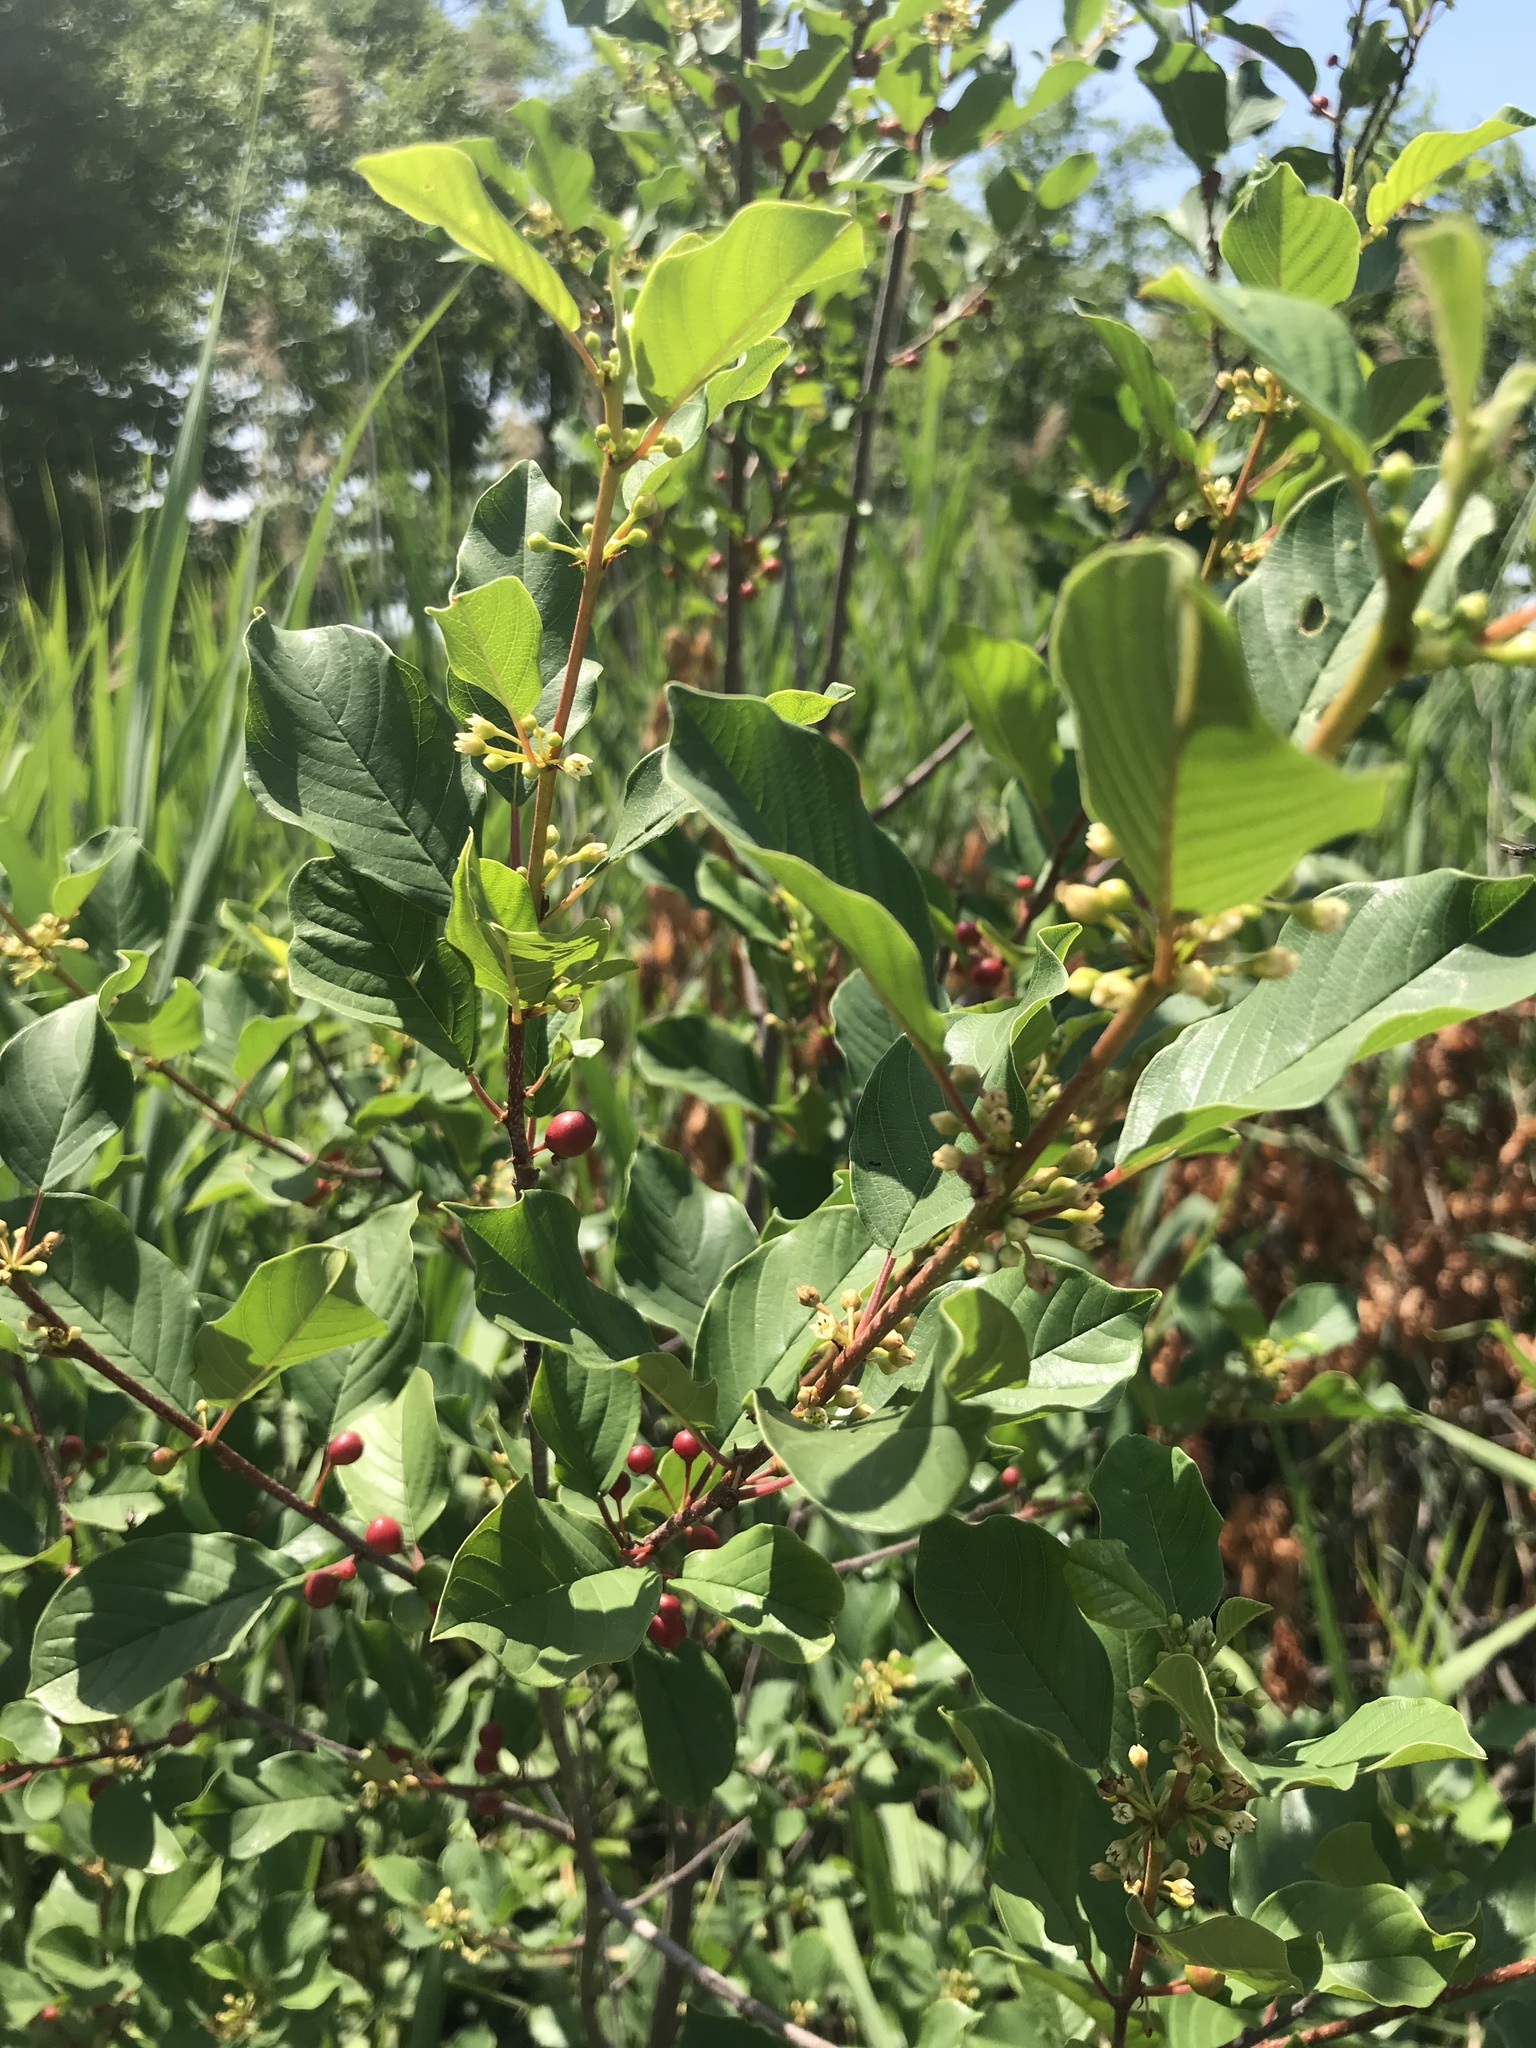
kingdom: Plantae
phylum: Tracheophyta
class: Magnoliopsida
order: Rosales
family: Rhamnaceae
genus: Frangula
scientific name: Frangula alnus
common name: Alder buckthorn
